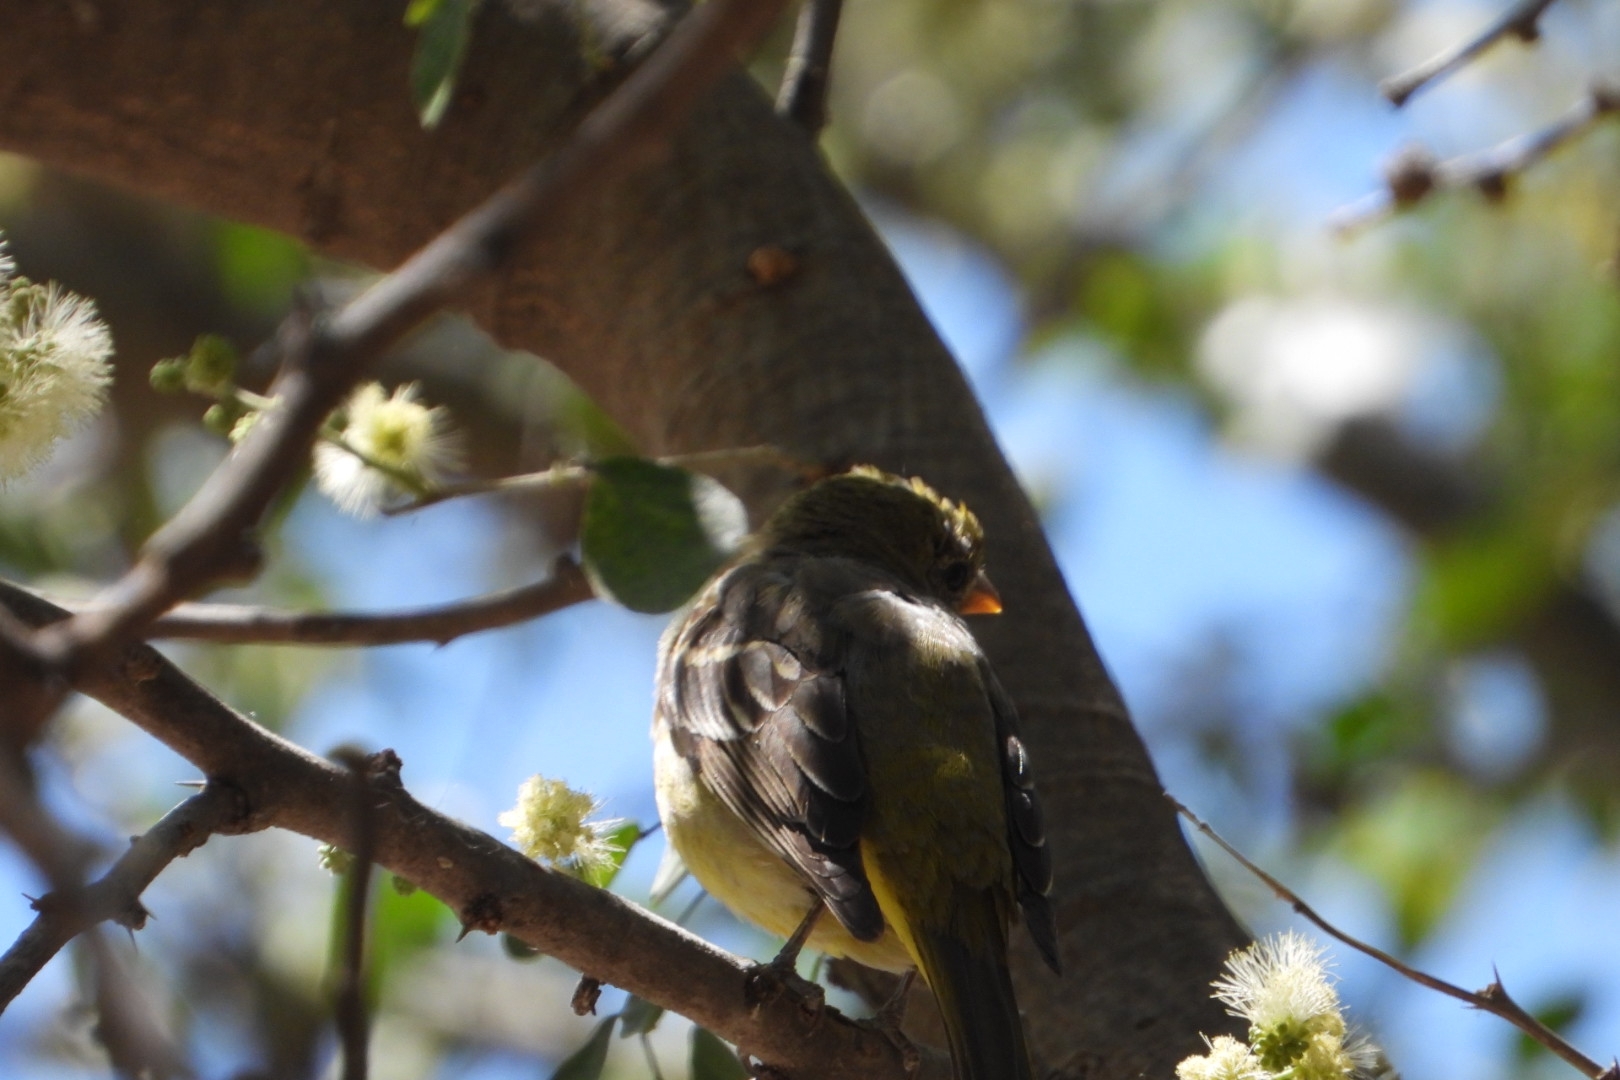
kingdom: Animalia
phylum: Chordata
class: Aves
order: Passeriformes
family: Cardinalidae
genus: Piranga
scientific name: Piranga ludoviciana
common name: Western tanager
